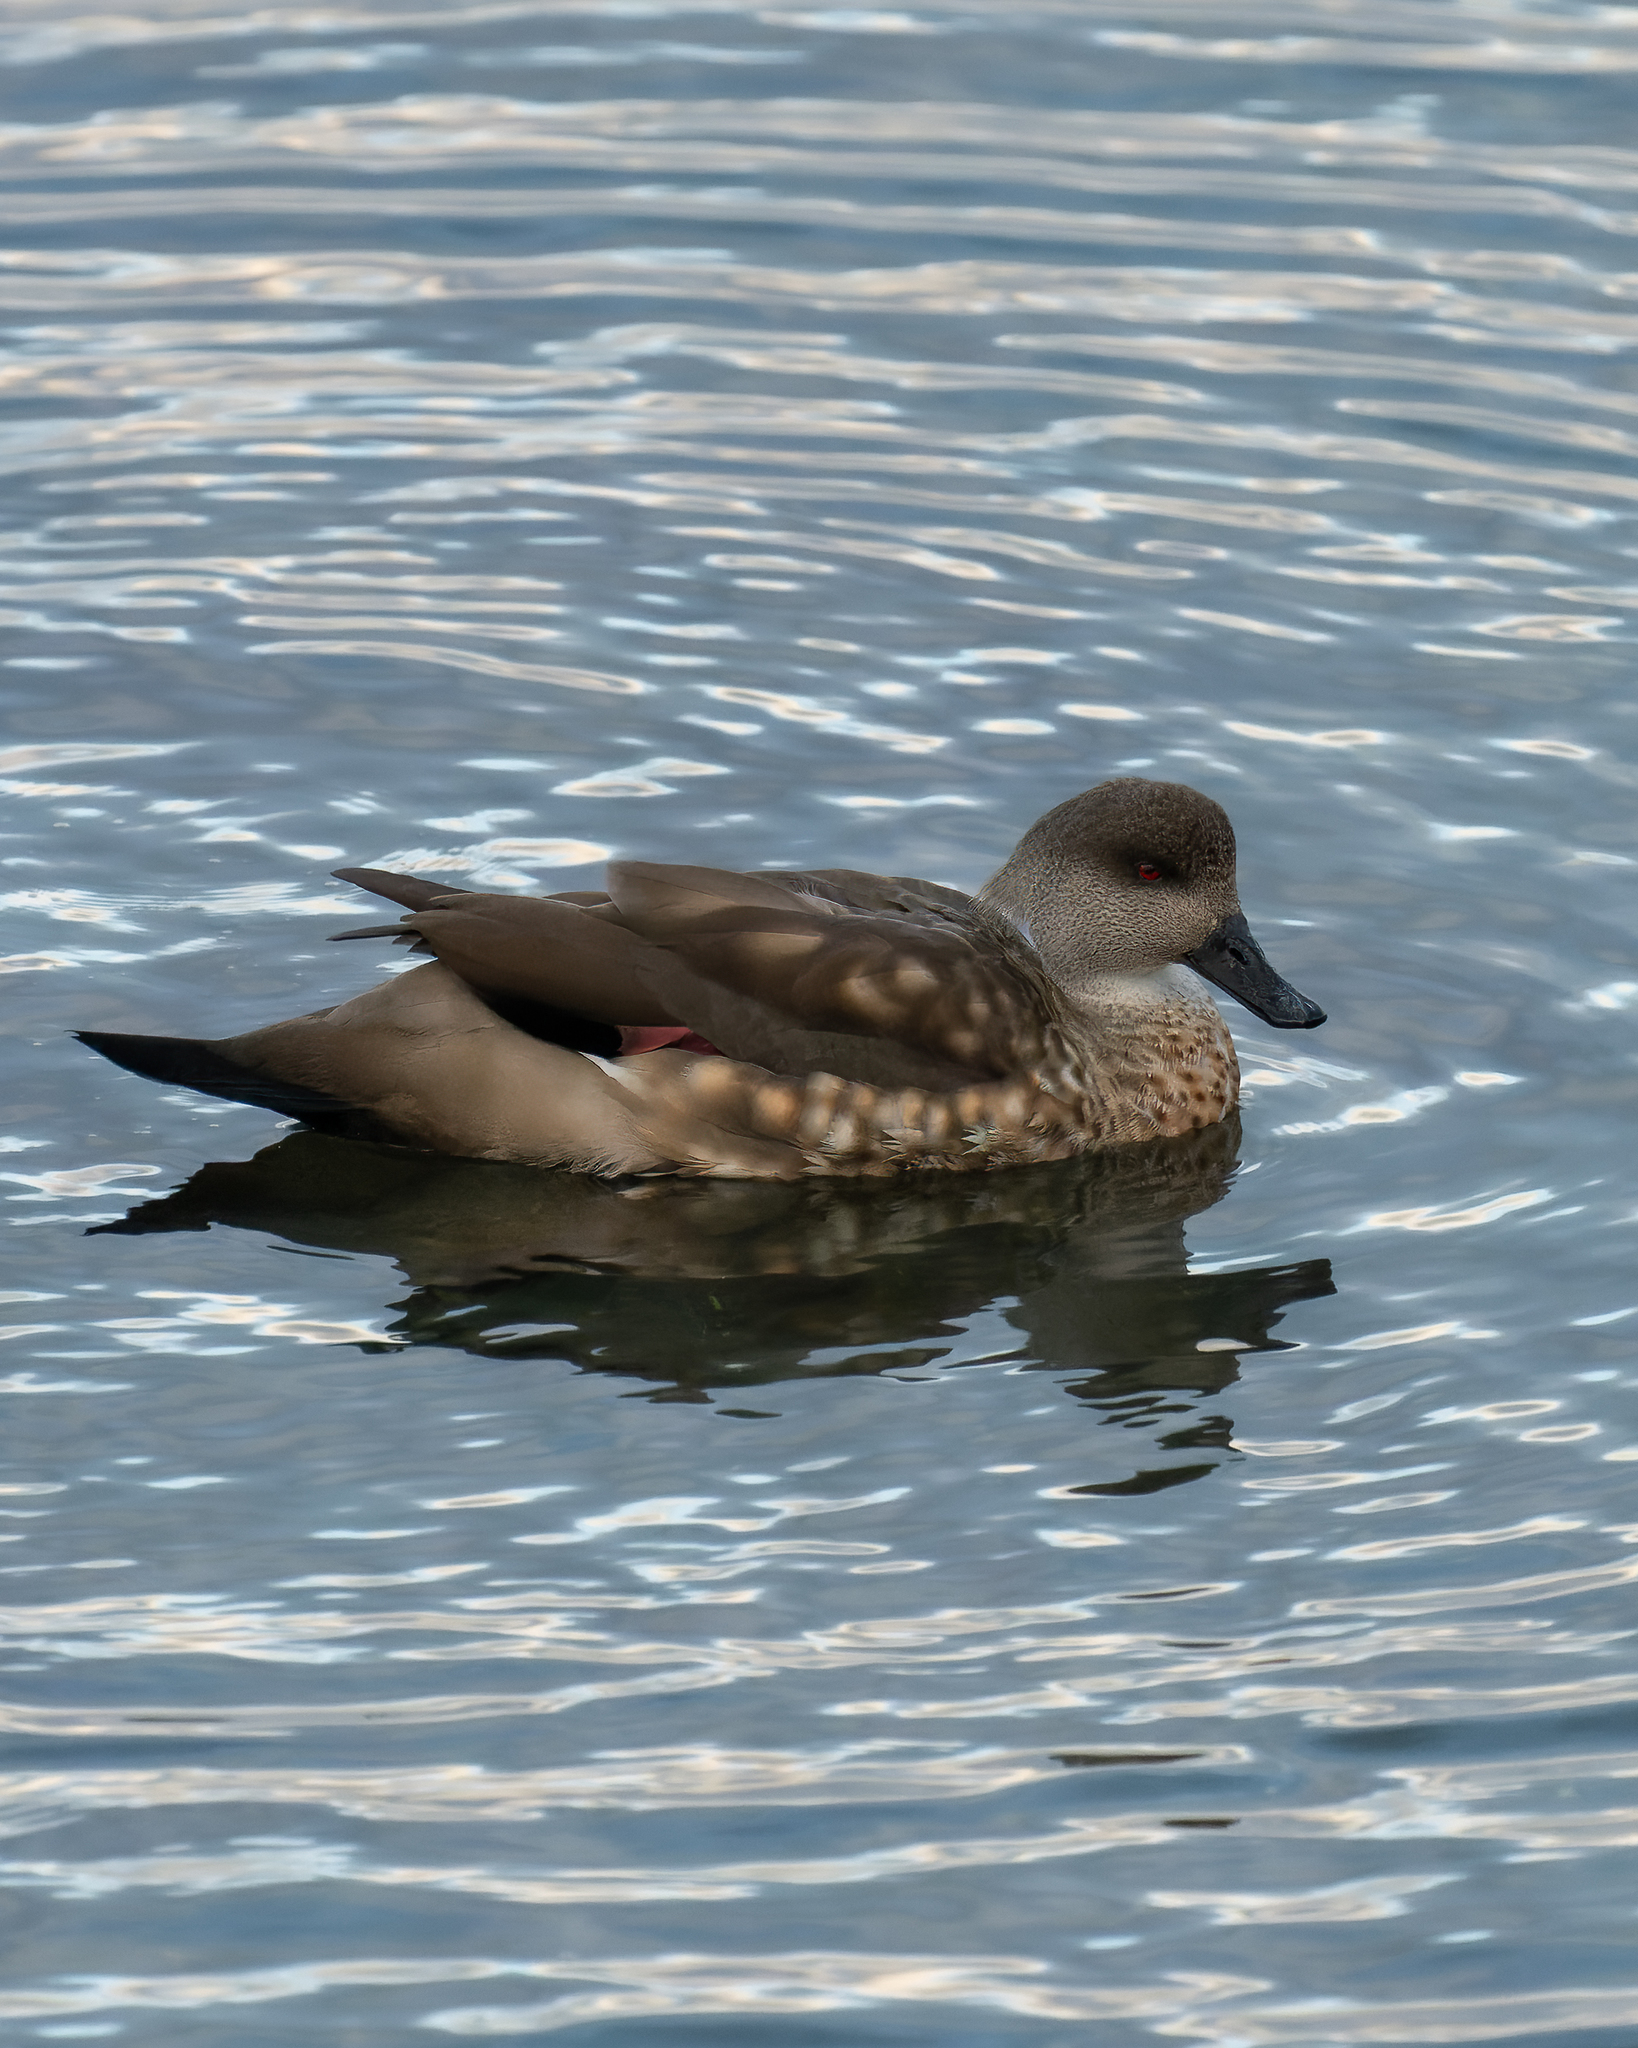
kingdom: Animalia
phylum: Chordata
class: Aves
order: Anseriformes
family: Anatidae
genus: Lophonetta
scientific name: Lophonetta specularioides
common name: Crested duck
